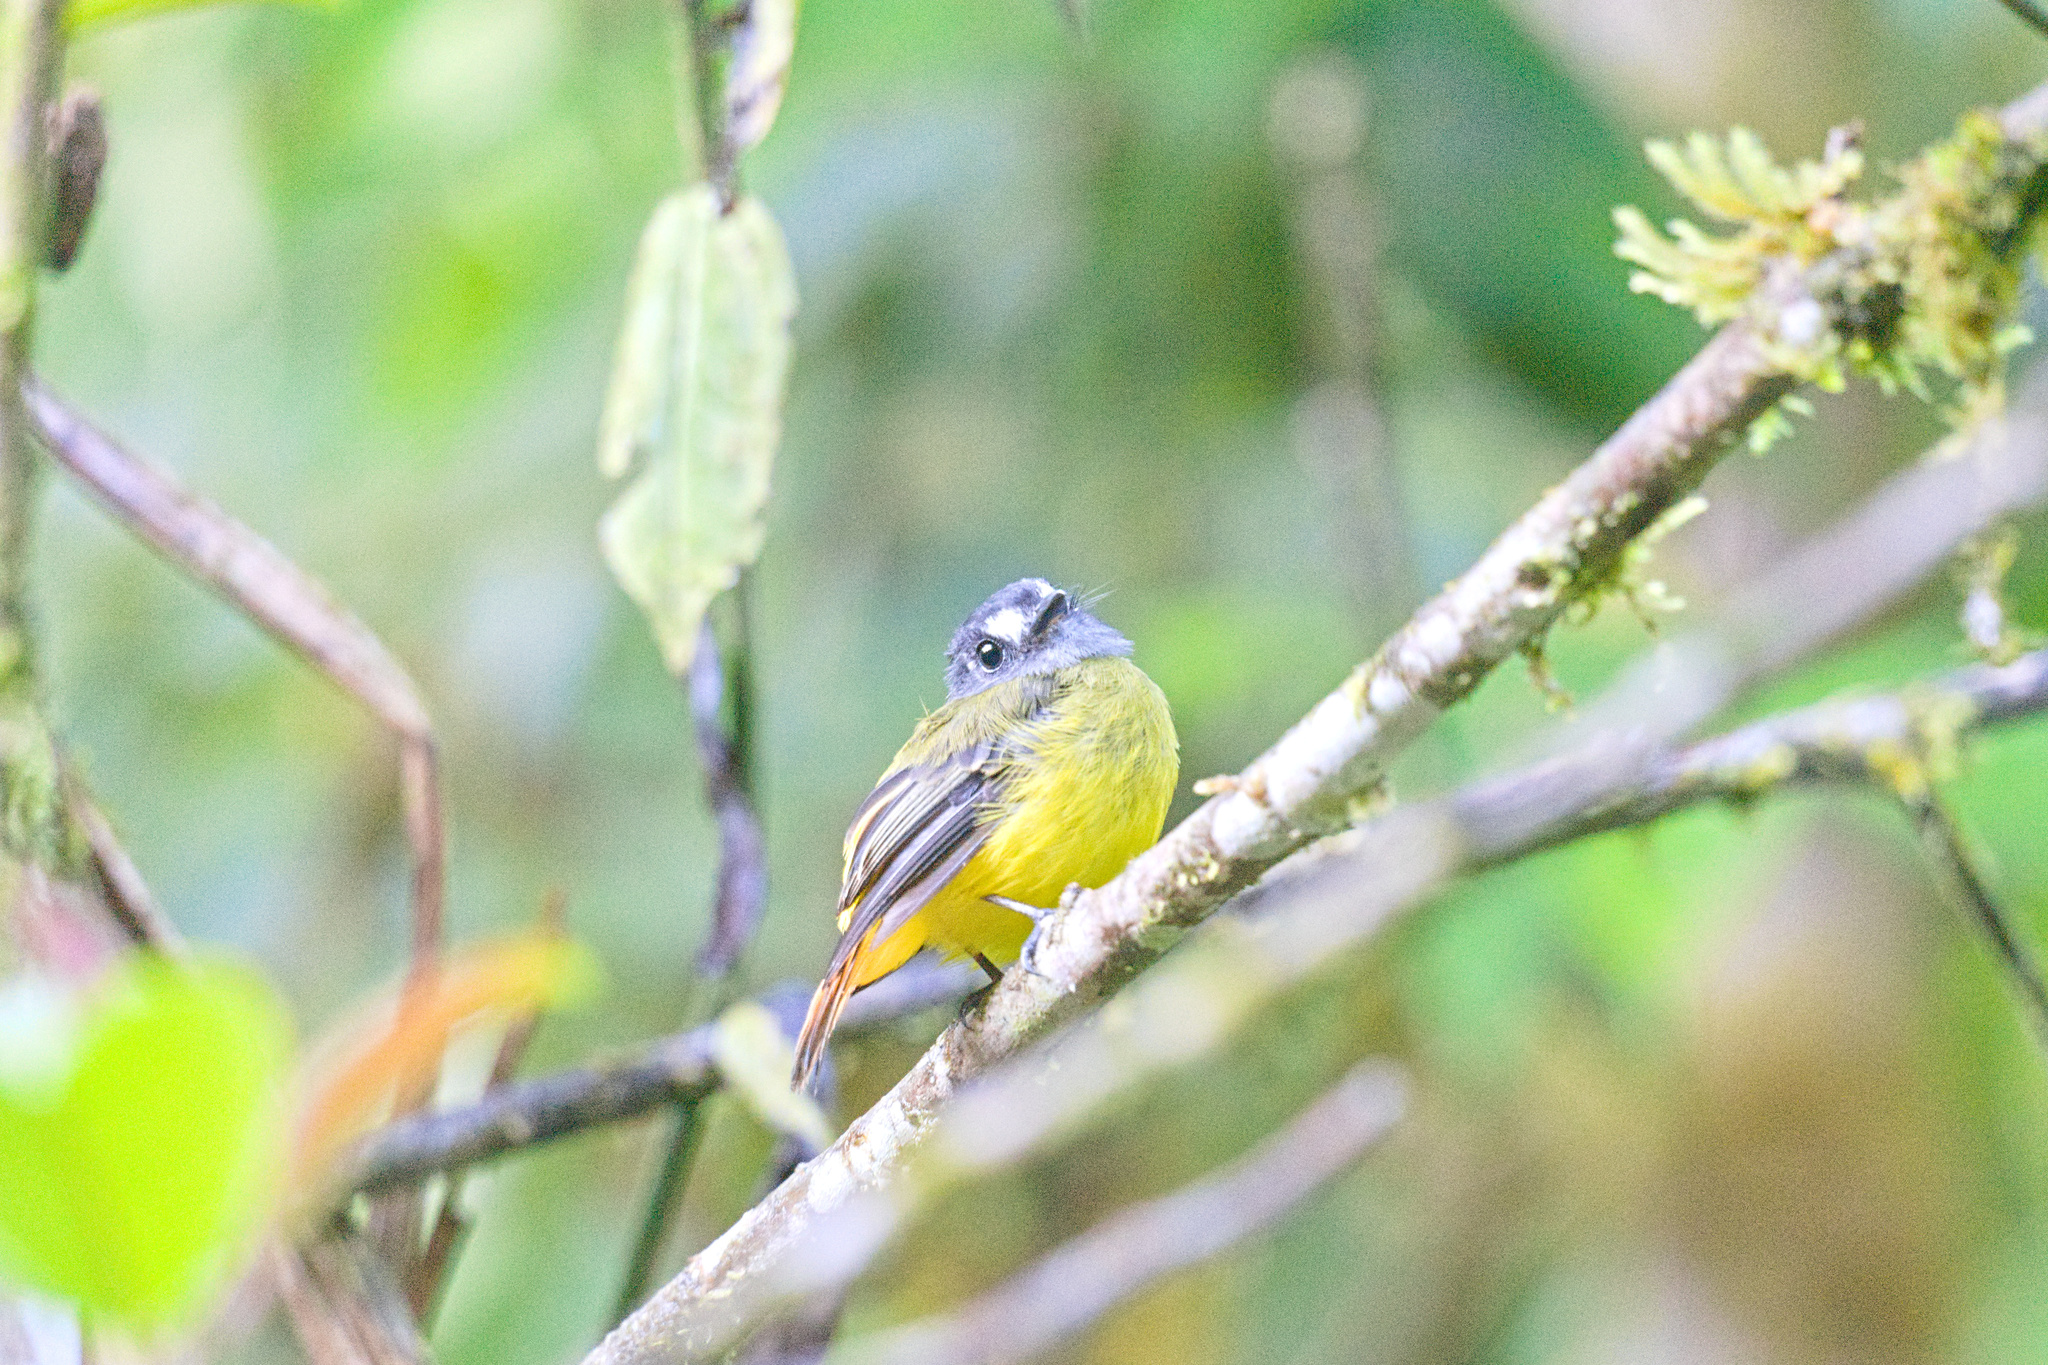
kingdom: Animalia
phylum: Chordata
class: Aves
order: Passeriformes
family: Tyrannidae
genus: Myiotriccus
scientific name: Myiotriccus ornatus
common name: Ornate flycatcher
